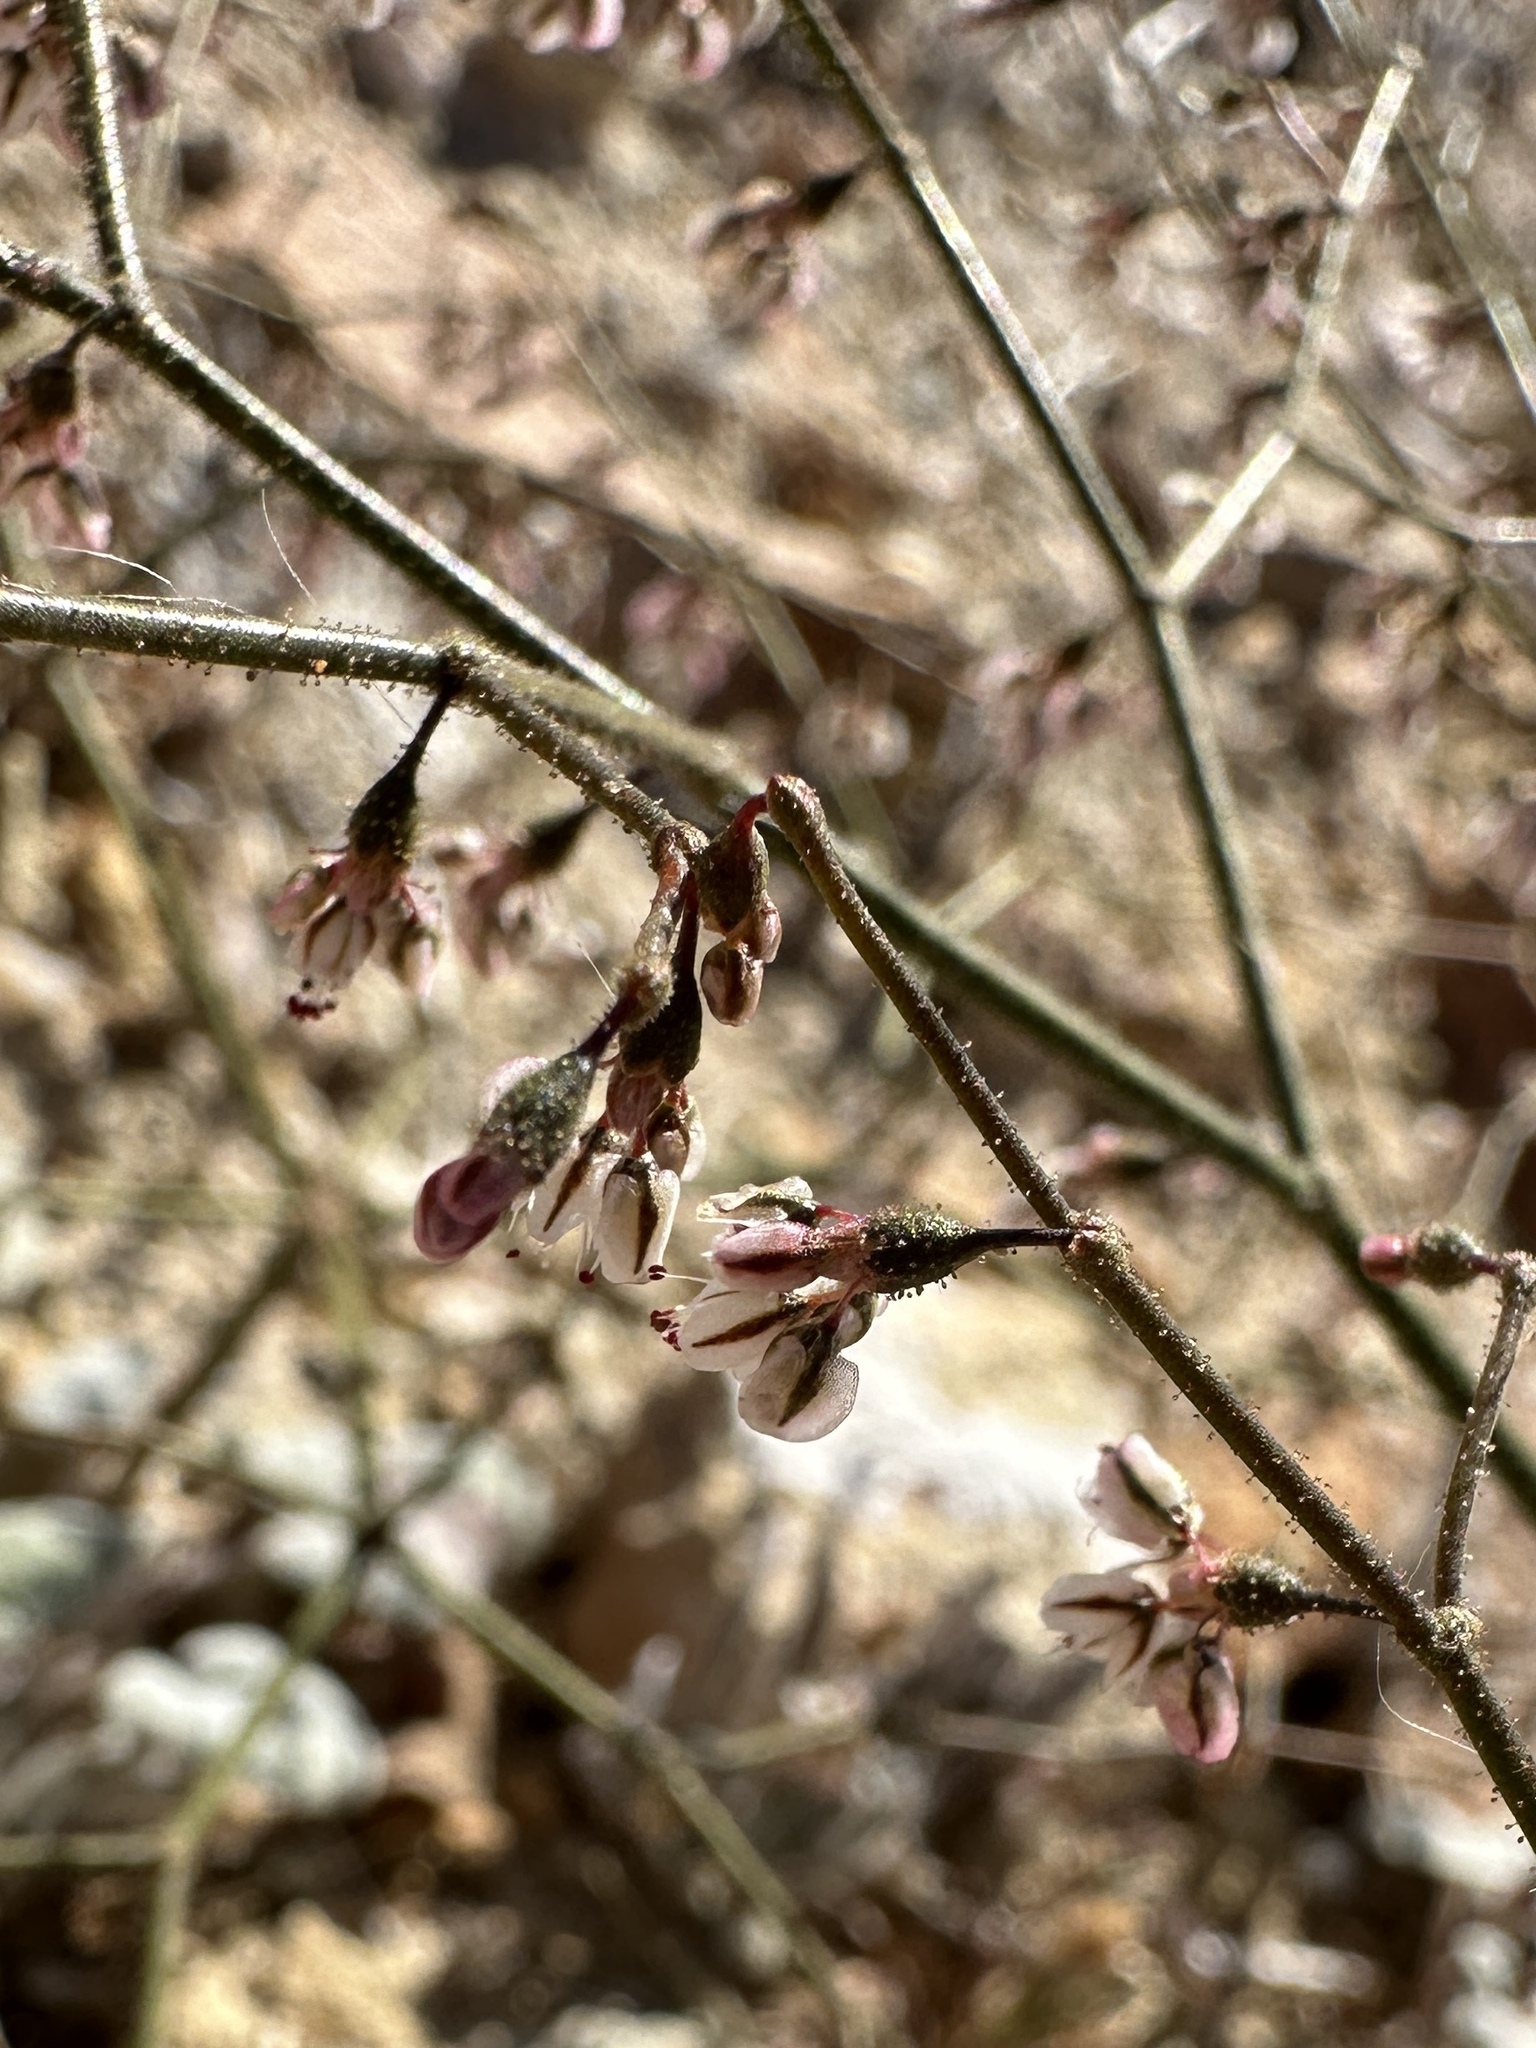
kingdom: Plantae
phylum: Tracheophyta
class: Magnoliopsida
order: Caryophyllales
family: Polygonaceae
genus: Eriogonum
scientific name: Eriogonum brachypodum
